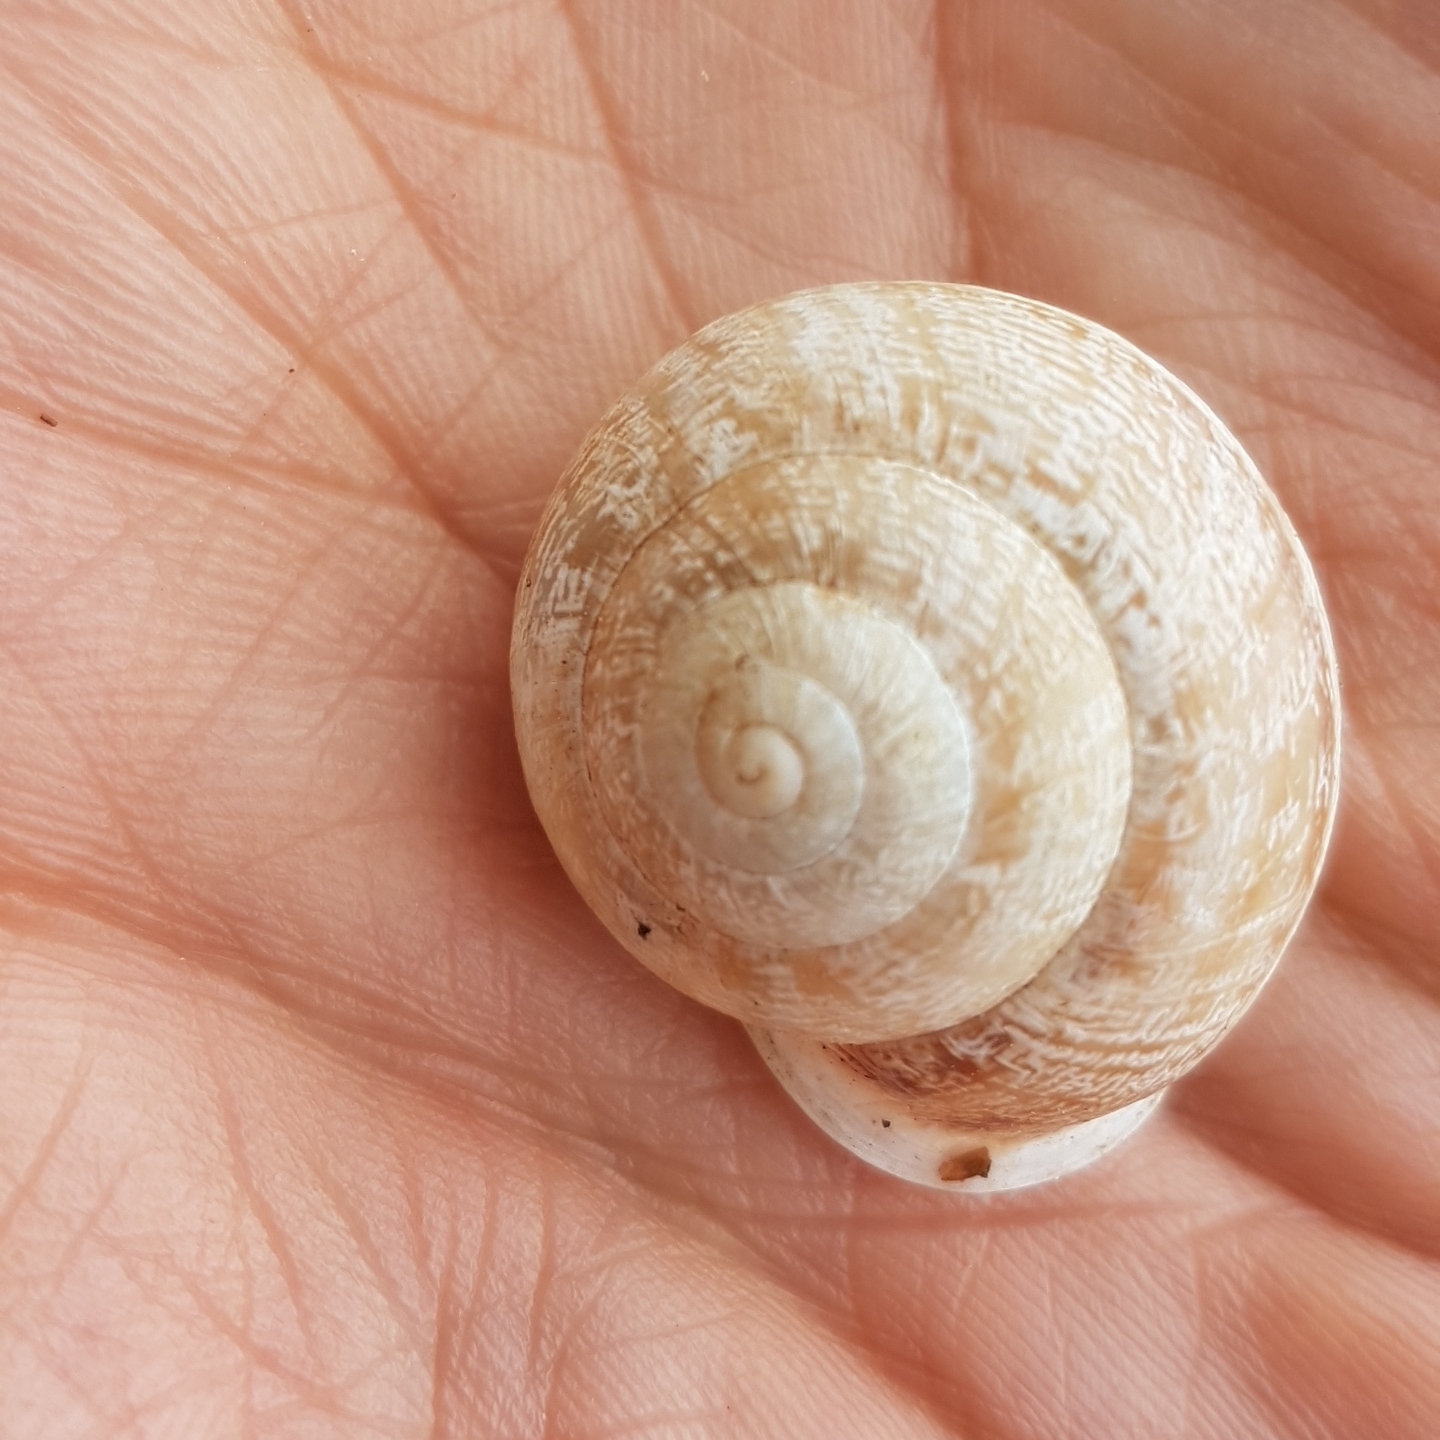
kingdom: Animalia
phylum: Mollusca
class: Gastropoda
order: Stylommatophora
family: Helicidae
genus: Eobania
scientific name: Eobania vermiculata
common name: Chocolateband snail
